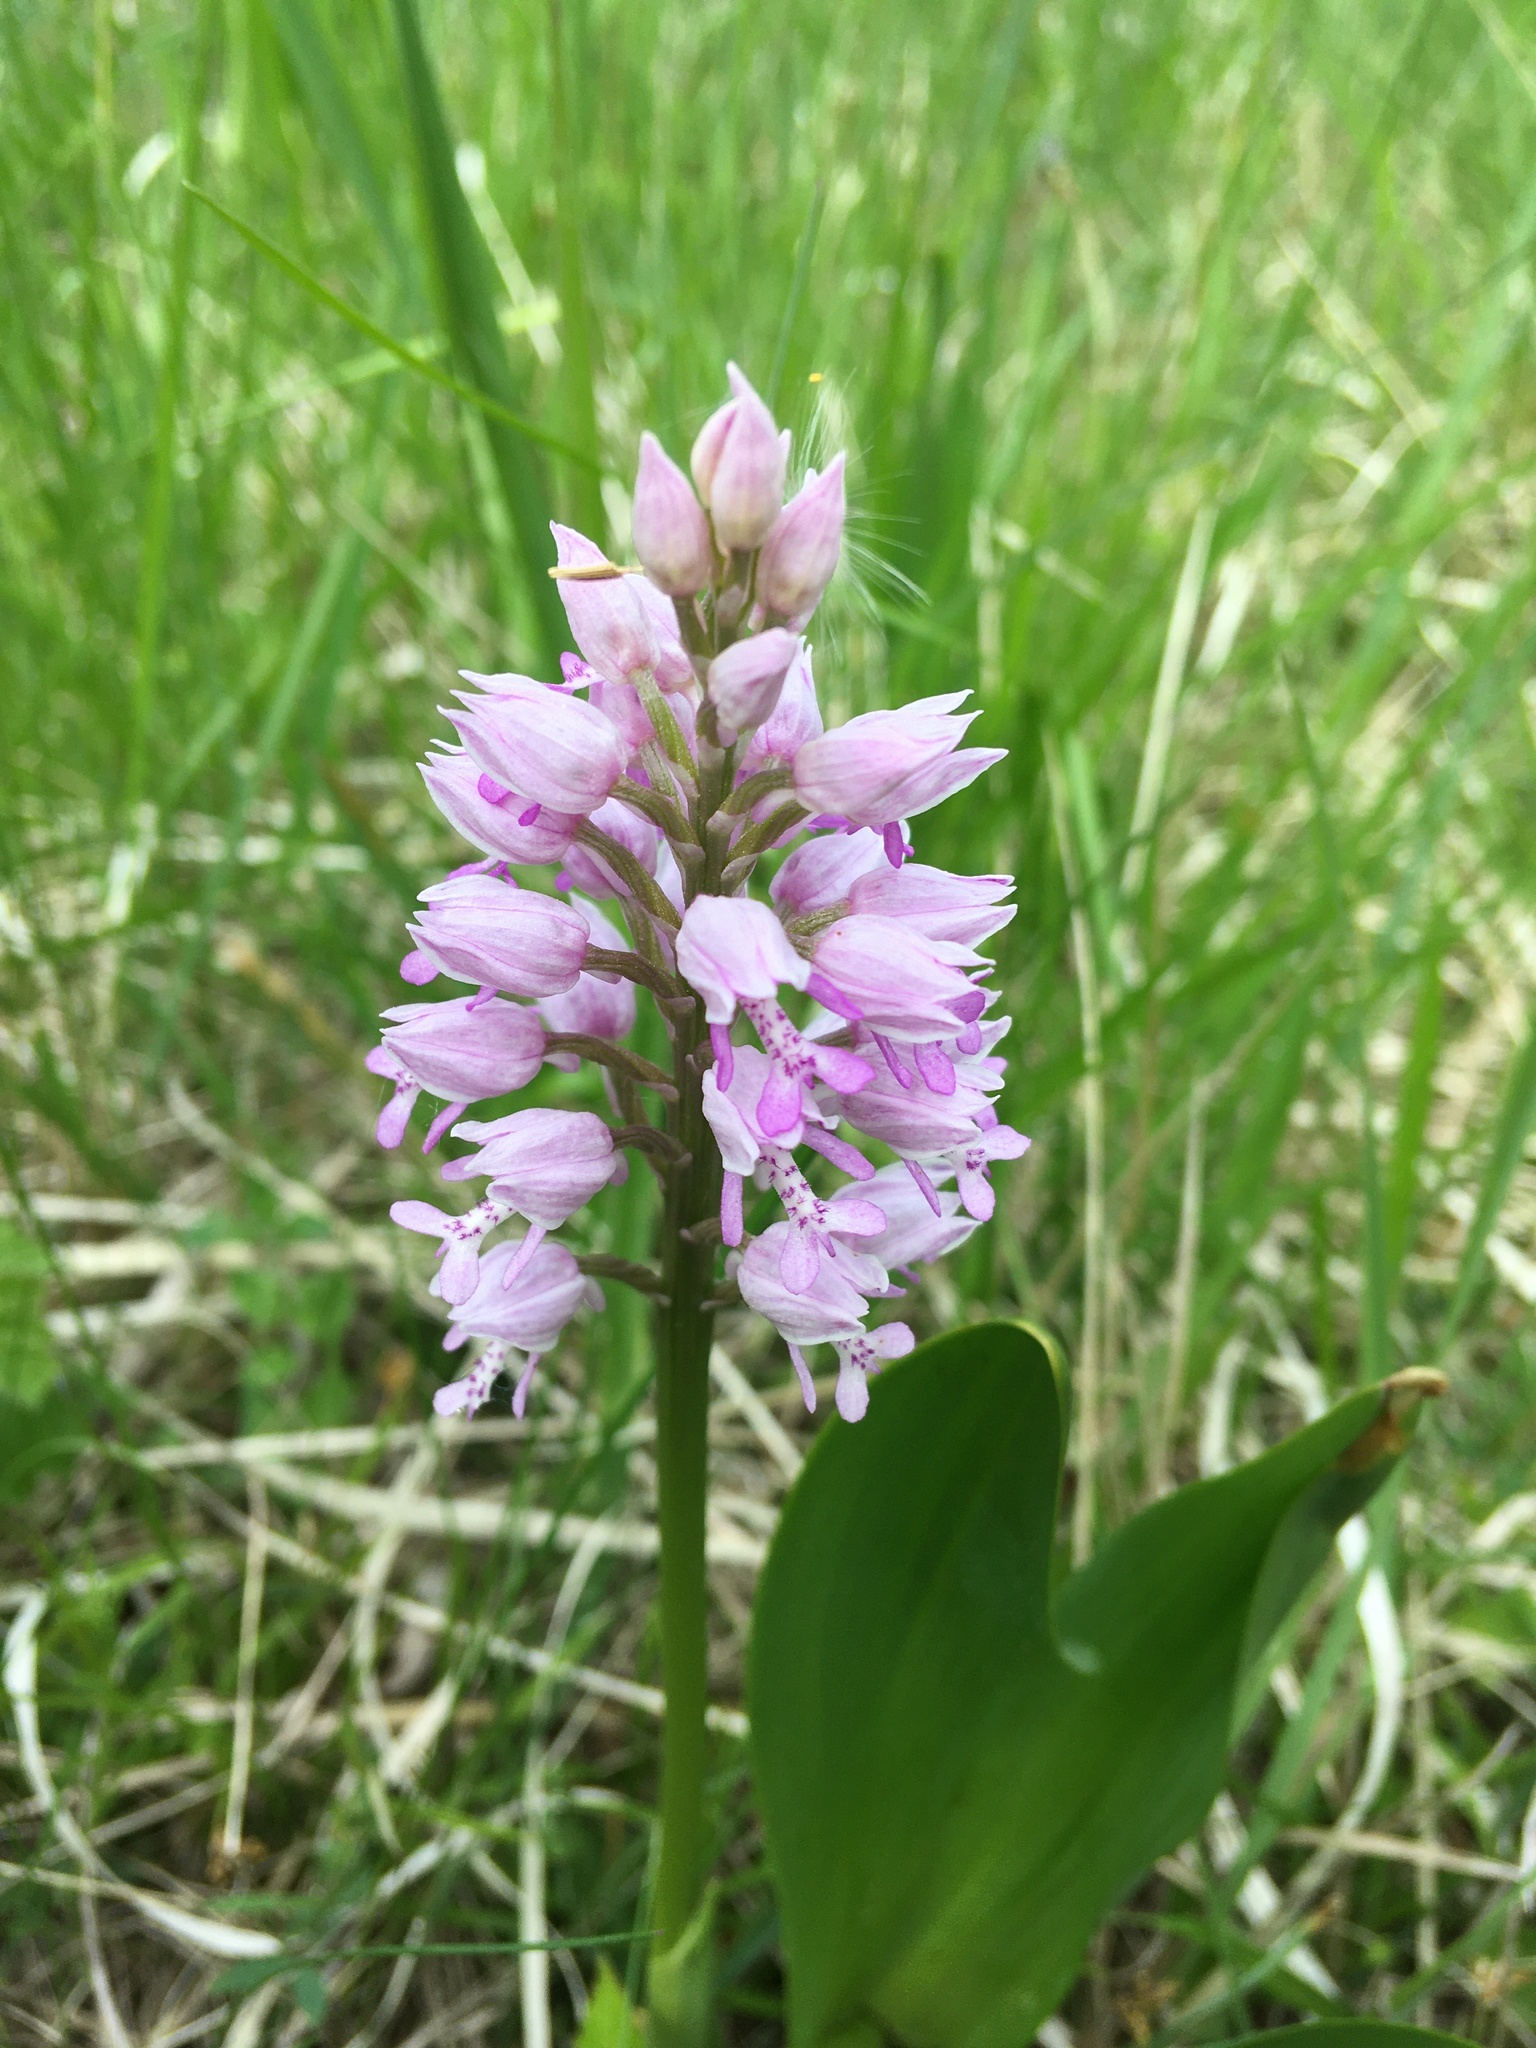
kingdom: Plantae
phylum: Tracheophyta
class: Liliopsida
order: Asparagales
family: Orchidaceae
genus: Orchis
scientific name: Orchis militaris
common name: Military orchid
